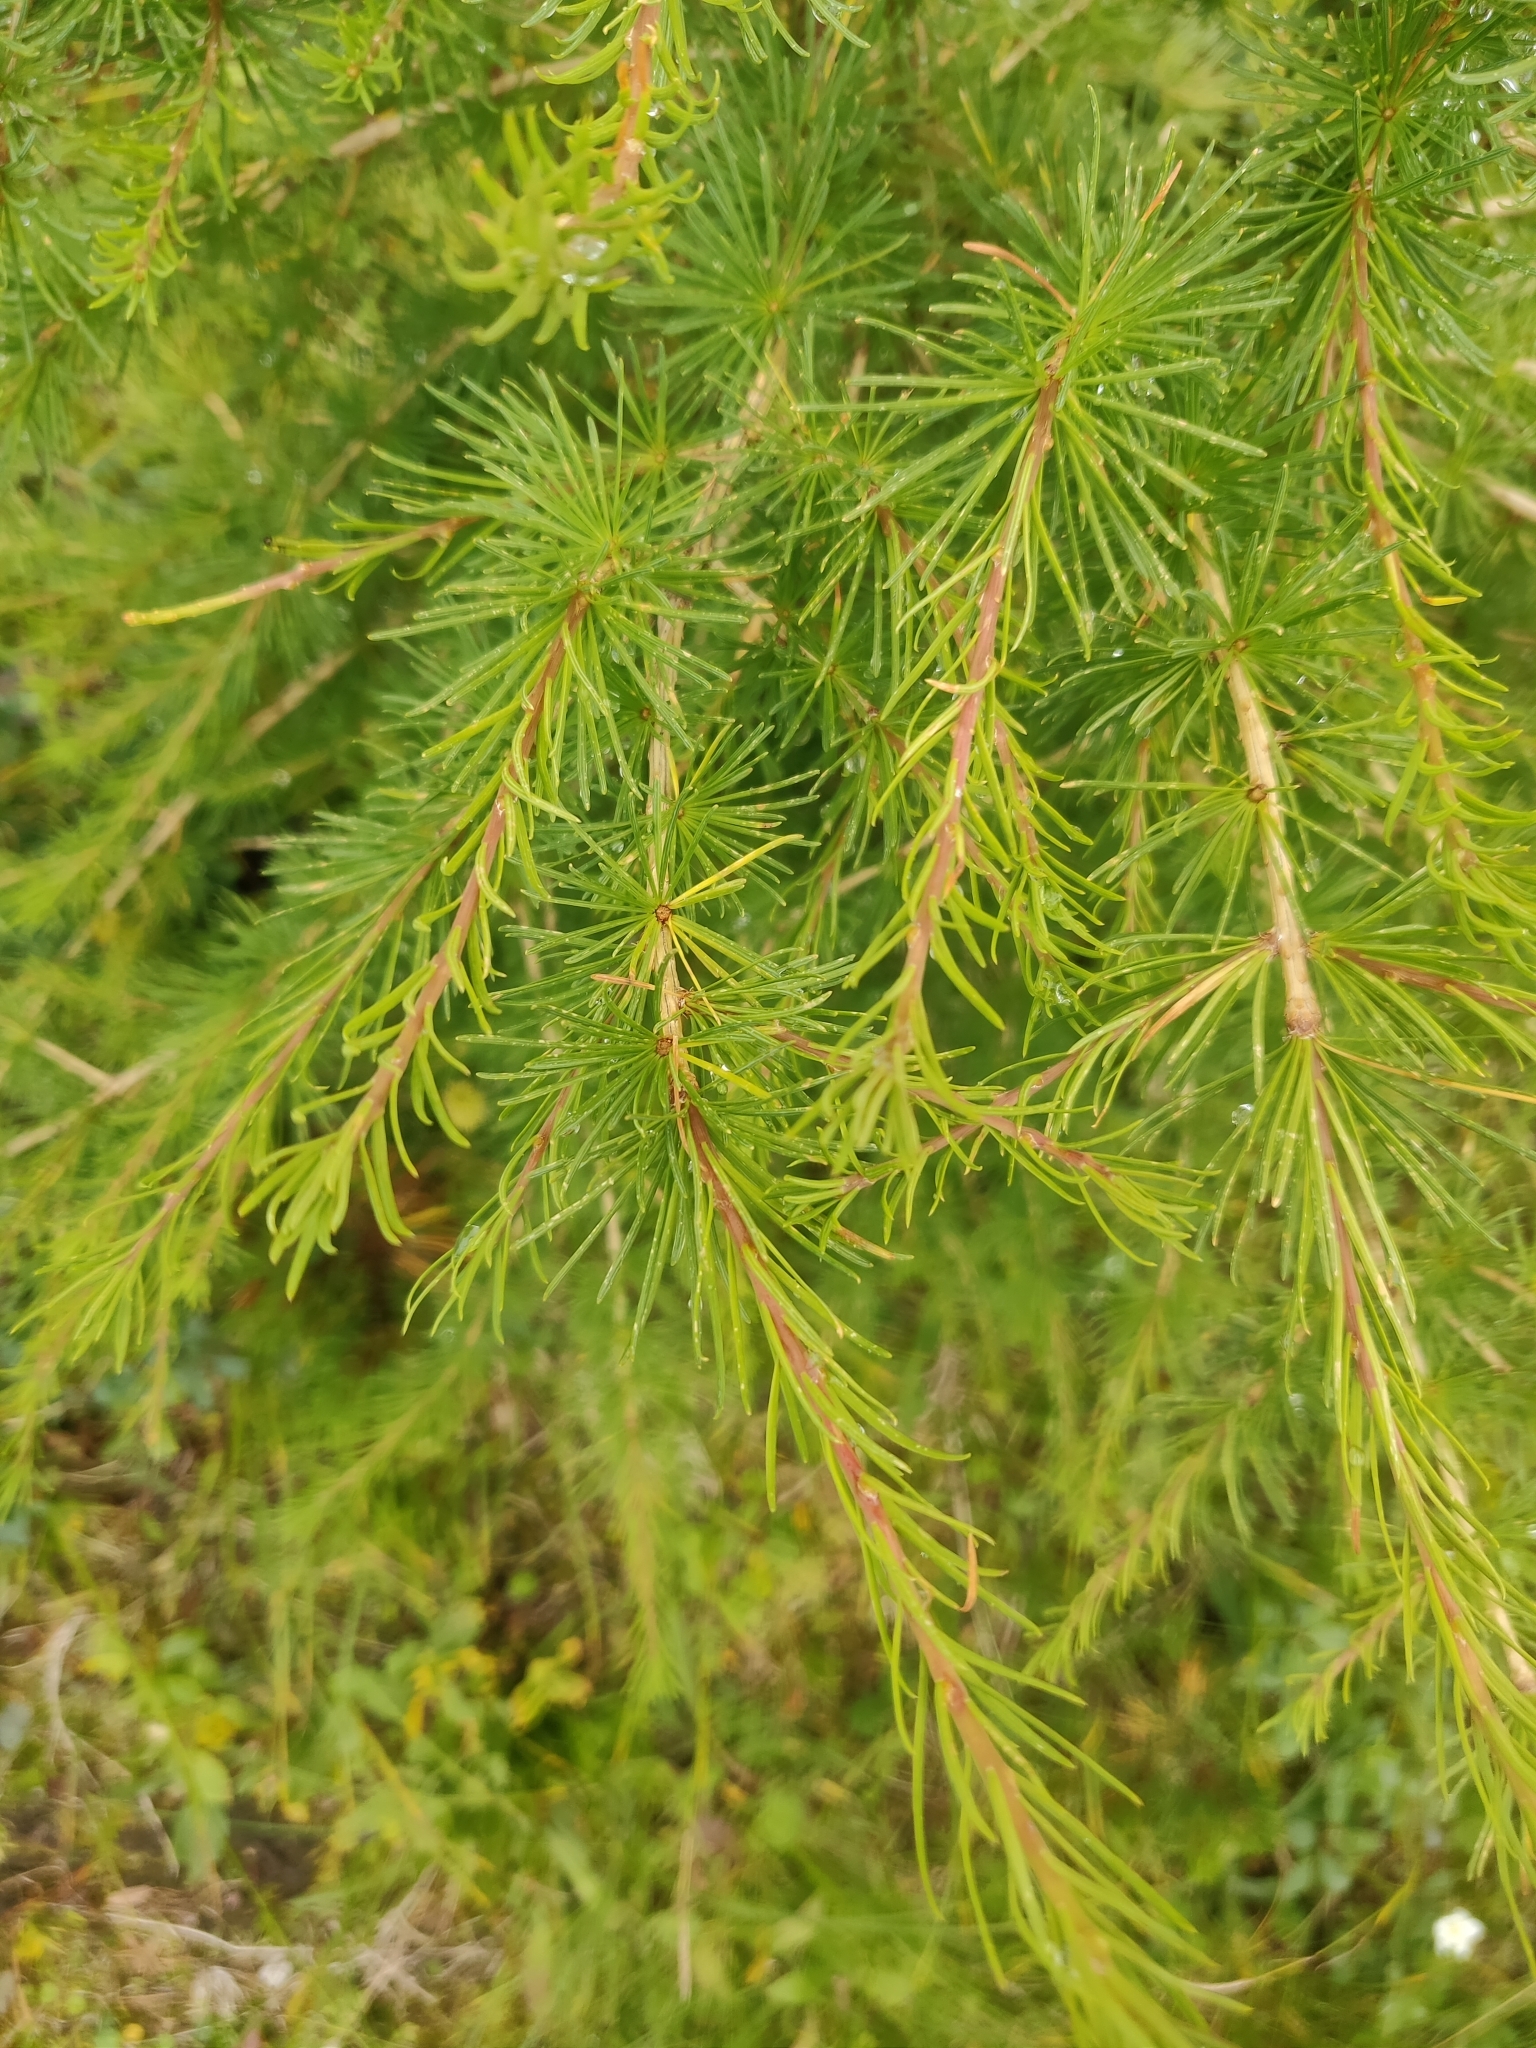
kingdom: Plantae
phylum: Tracheophyta
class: Pinopsida
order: Pinales
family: Pinaceae
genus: Larix
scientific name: Larix decidua
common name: European larch
